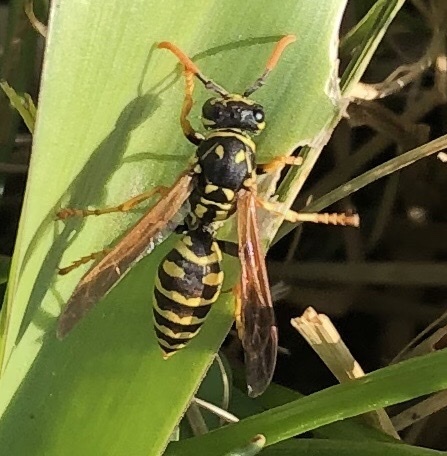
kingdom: Animalia
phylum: Arthropoda
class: Insecta
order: Hymenoptera
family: Eumenidae
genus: Polistes
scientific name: Polistes dominula
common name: Paper wasp
